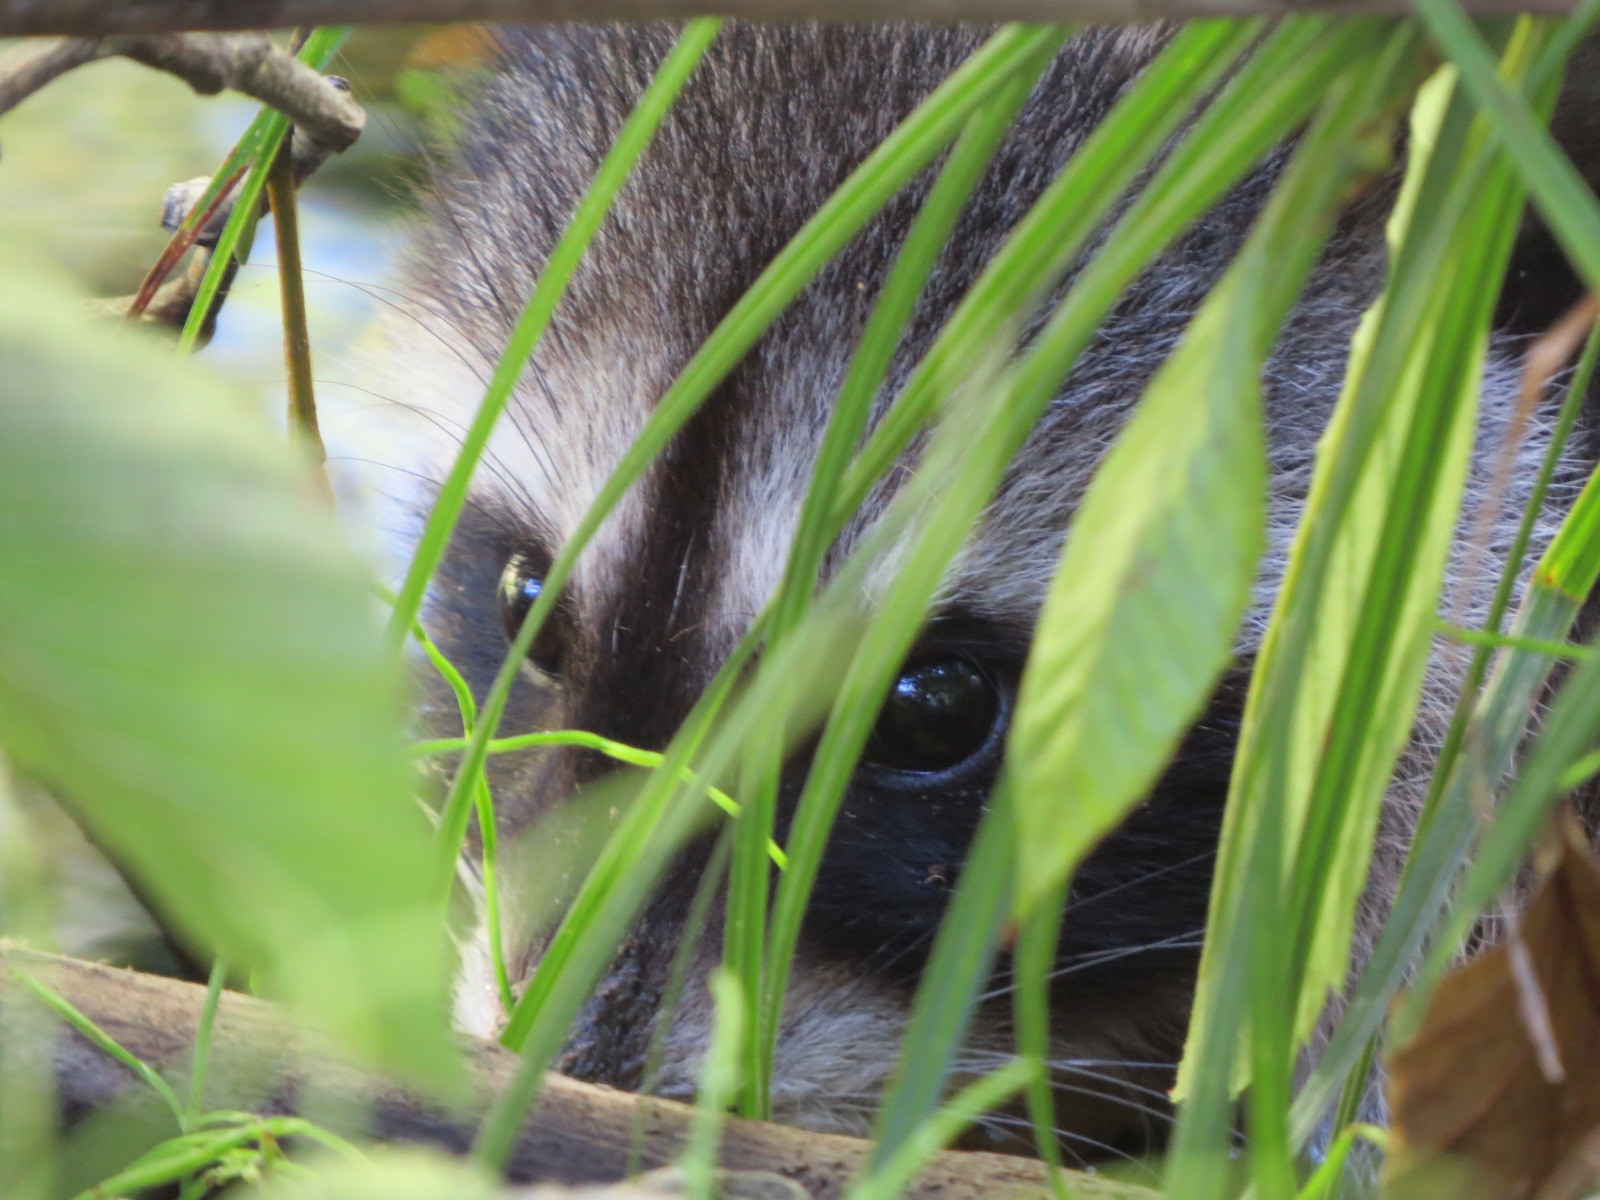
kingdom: Animalia
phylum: Chordata
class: Mammalia
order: Carnivora
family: Procyonidae
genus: Procyon
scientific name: Procyon lotor
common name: Raccoon
